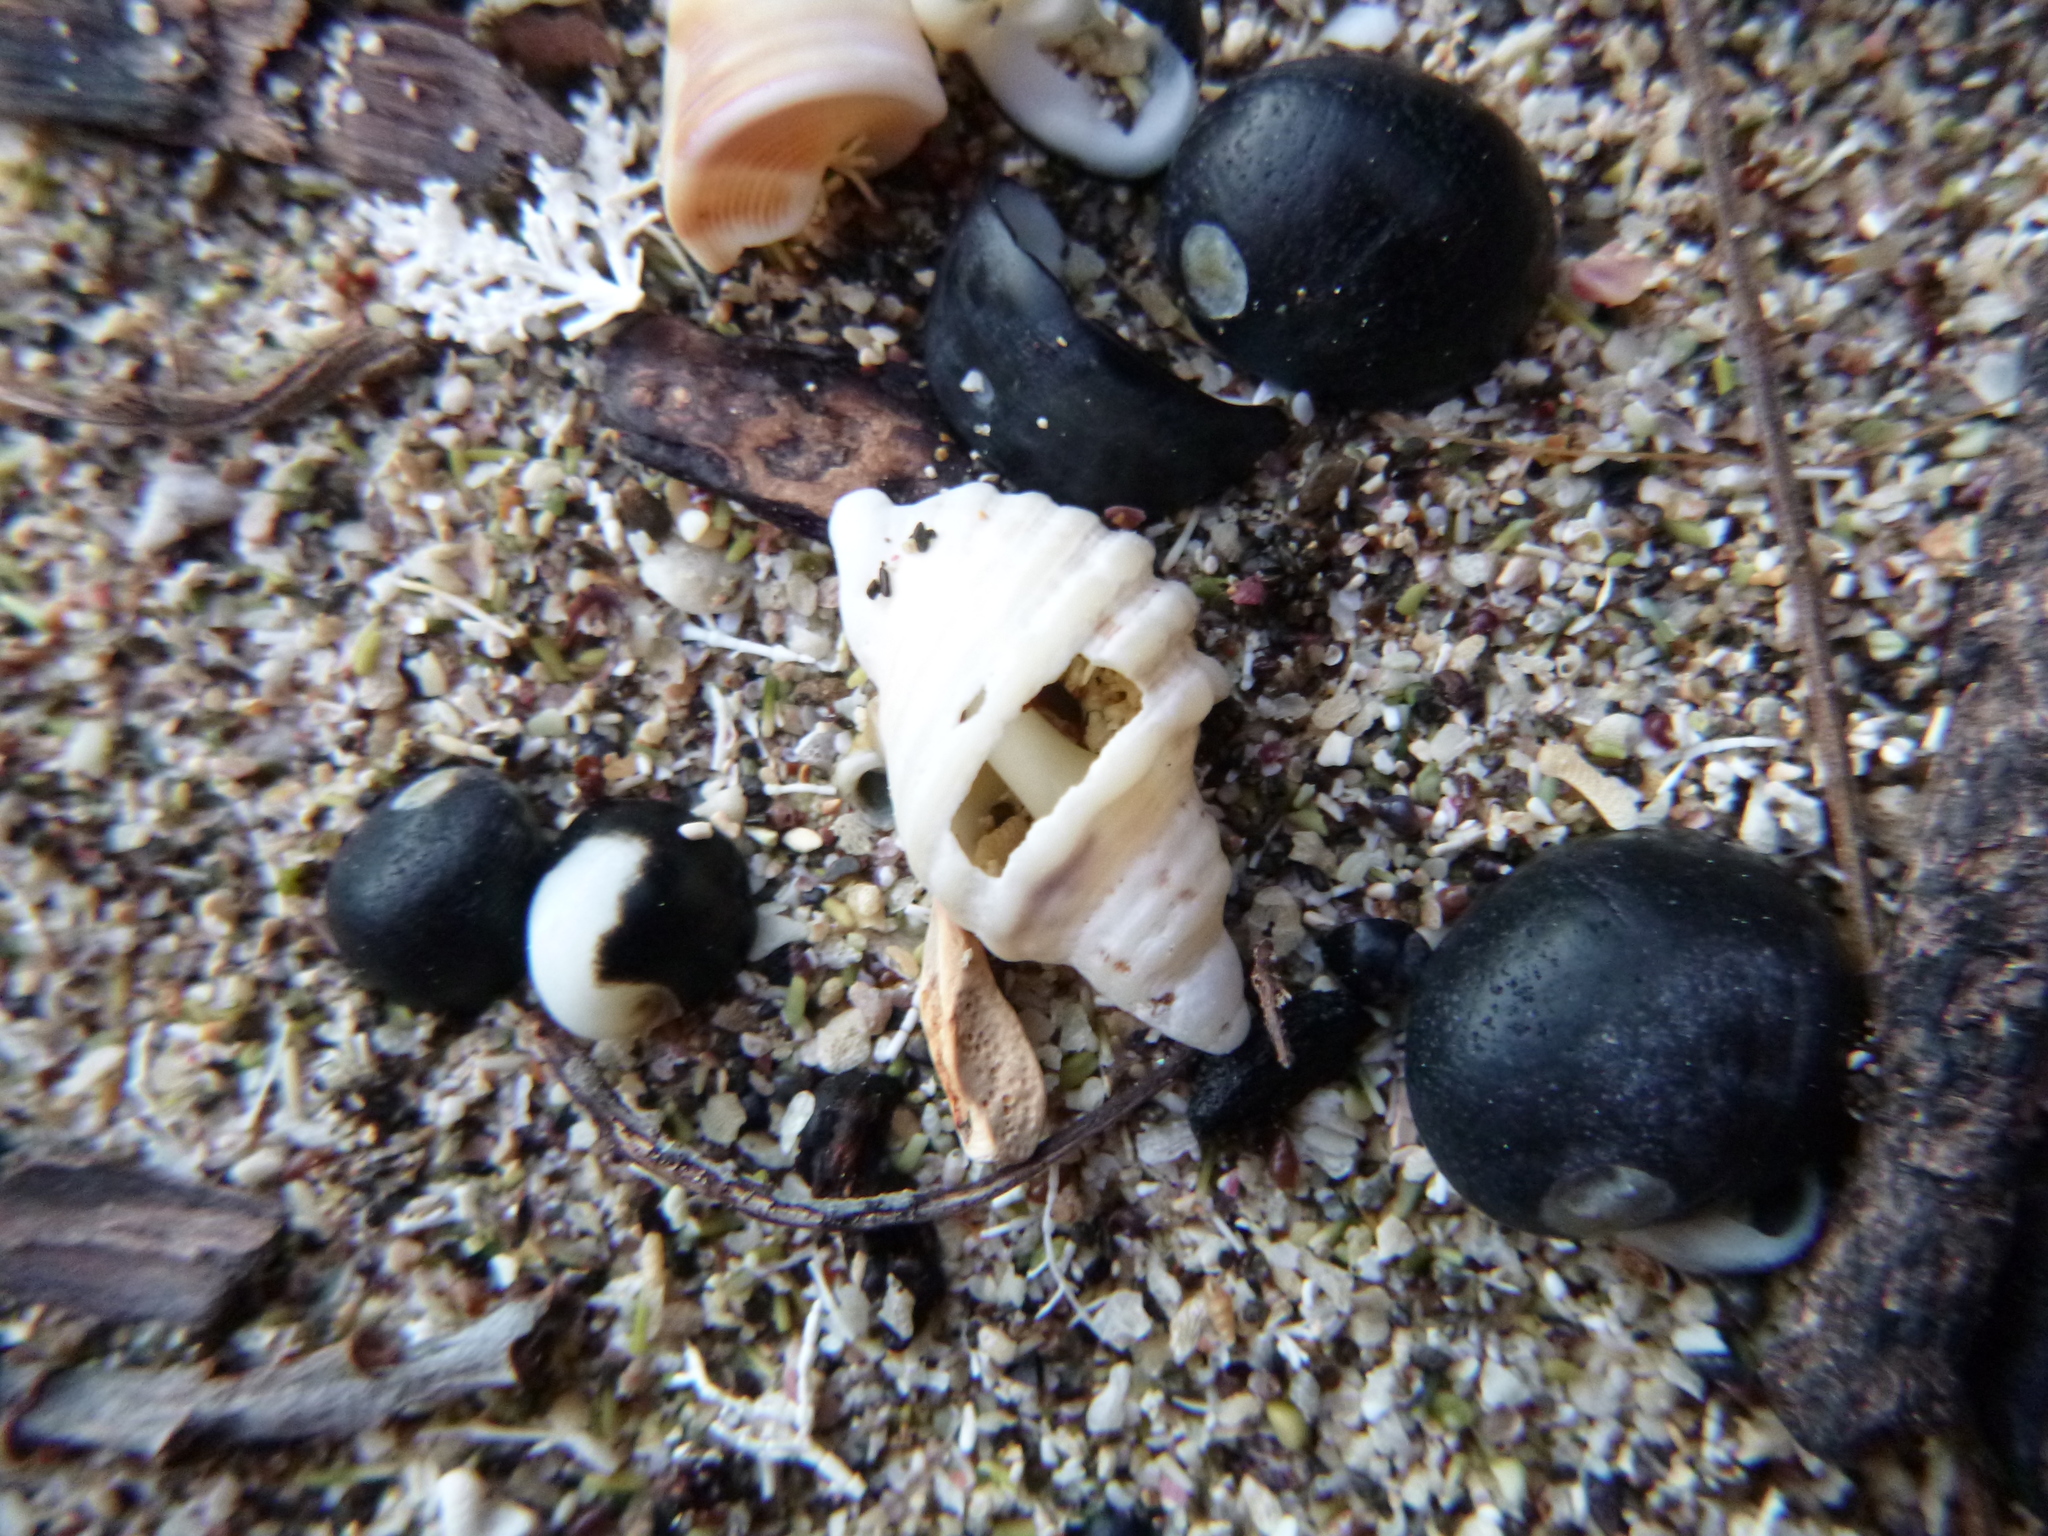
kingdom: Animalia
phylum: Mollusca
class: Gastropoda
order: Neogastropoda
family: Muricidae
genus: Dicathais
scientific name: Dicathais orbita
